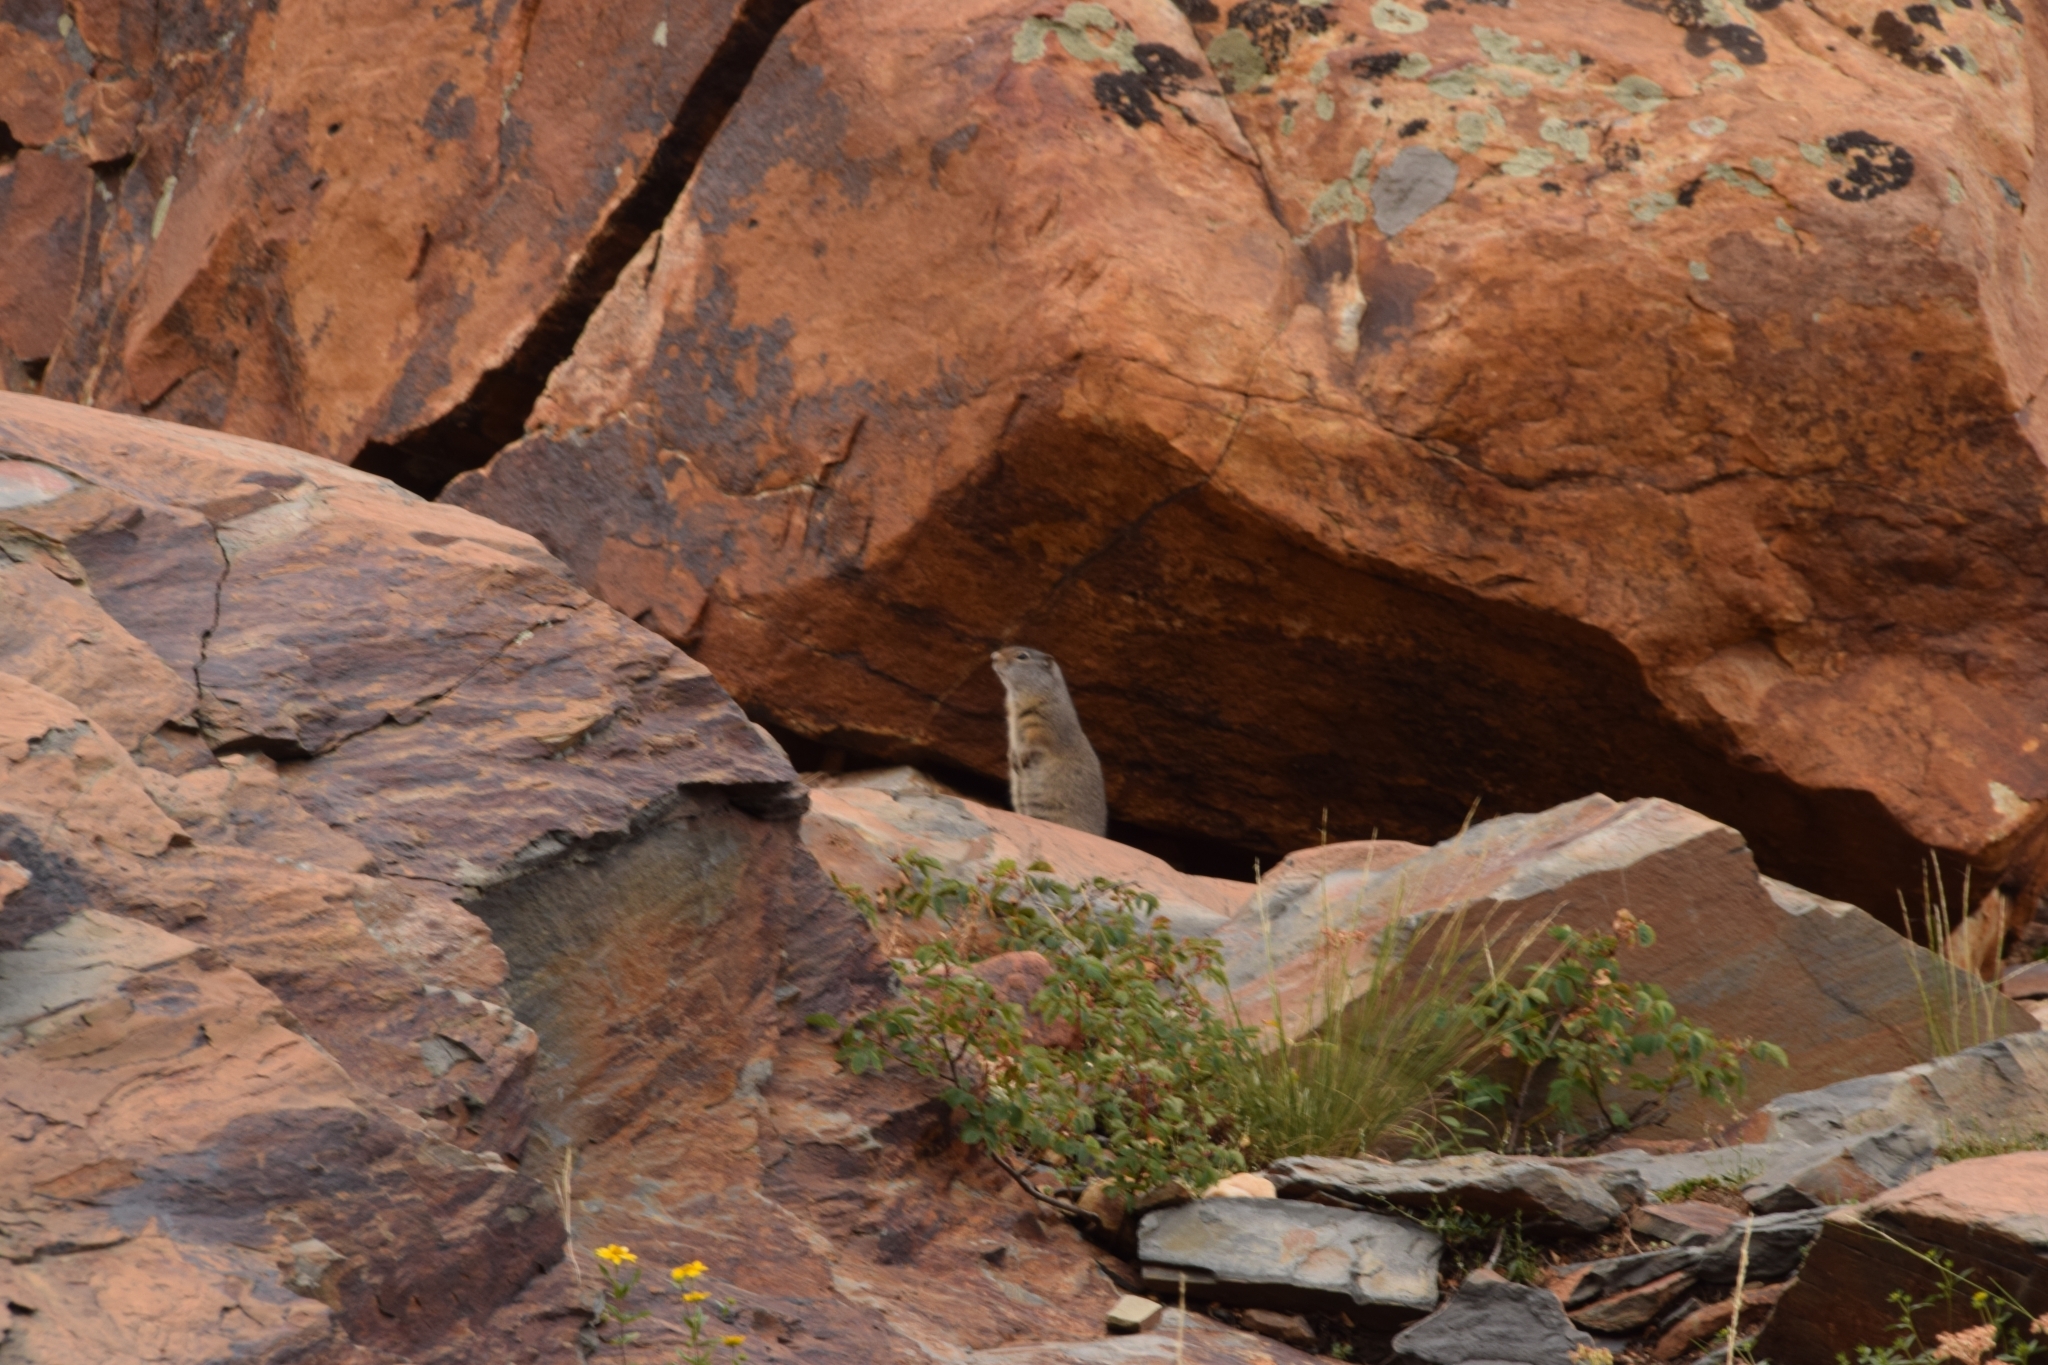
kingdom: Animalia
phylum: Chordata
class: Mammalia
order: Rodentia
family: Sciuridae
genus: Urocitellus
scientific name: Urocitellus armatus
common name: Uinta ground squirrel
